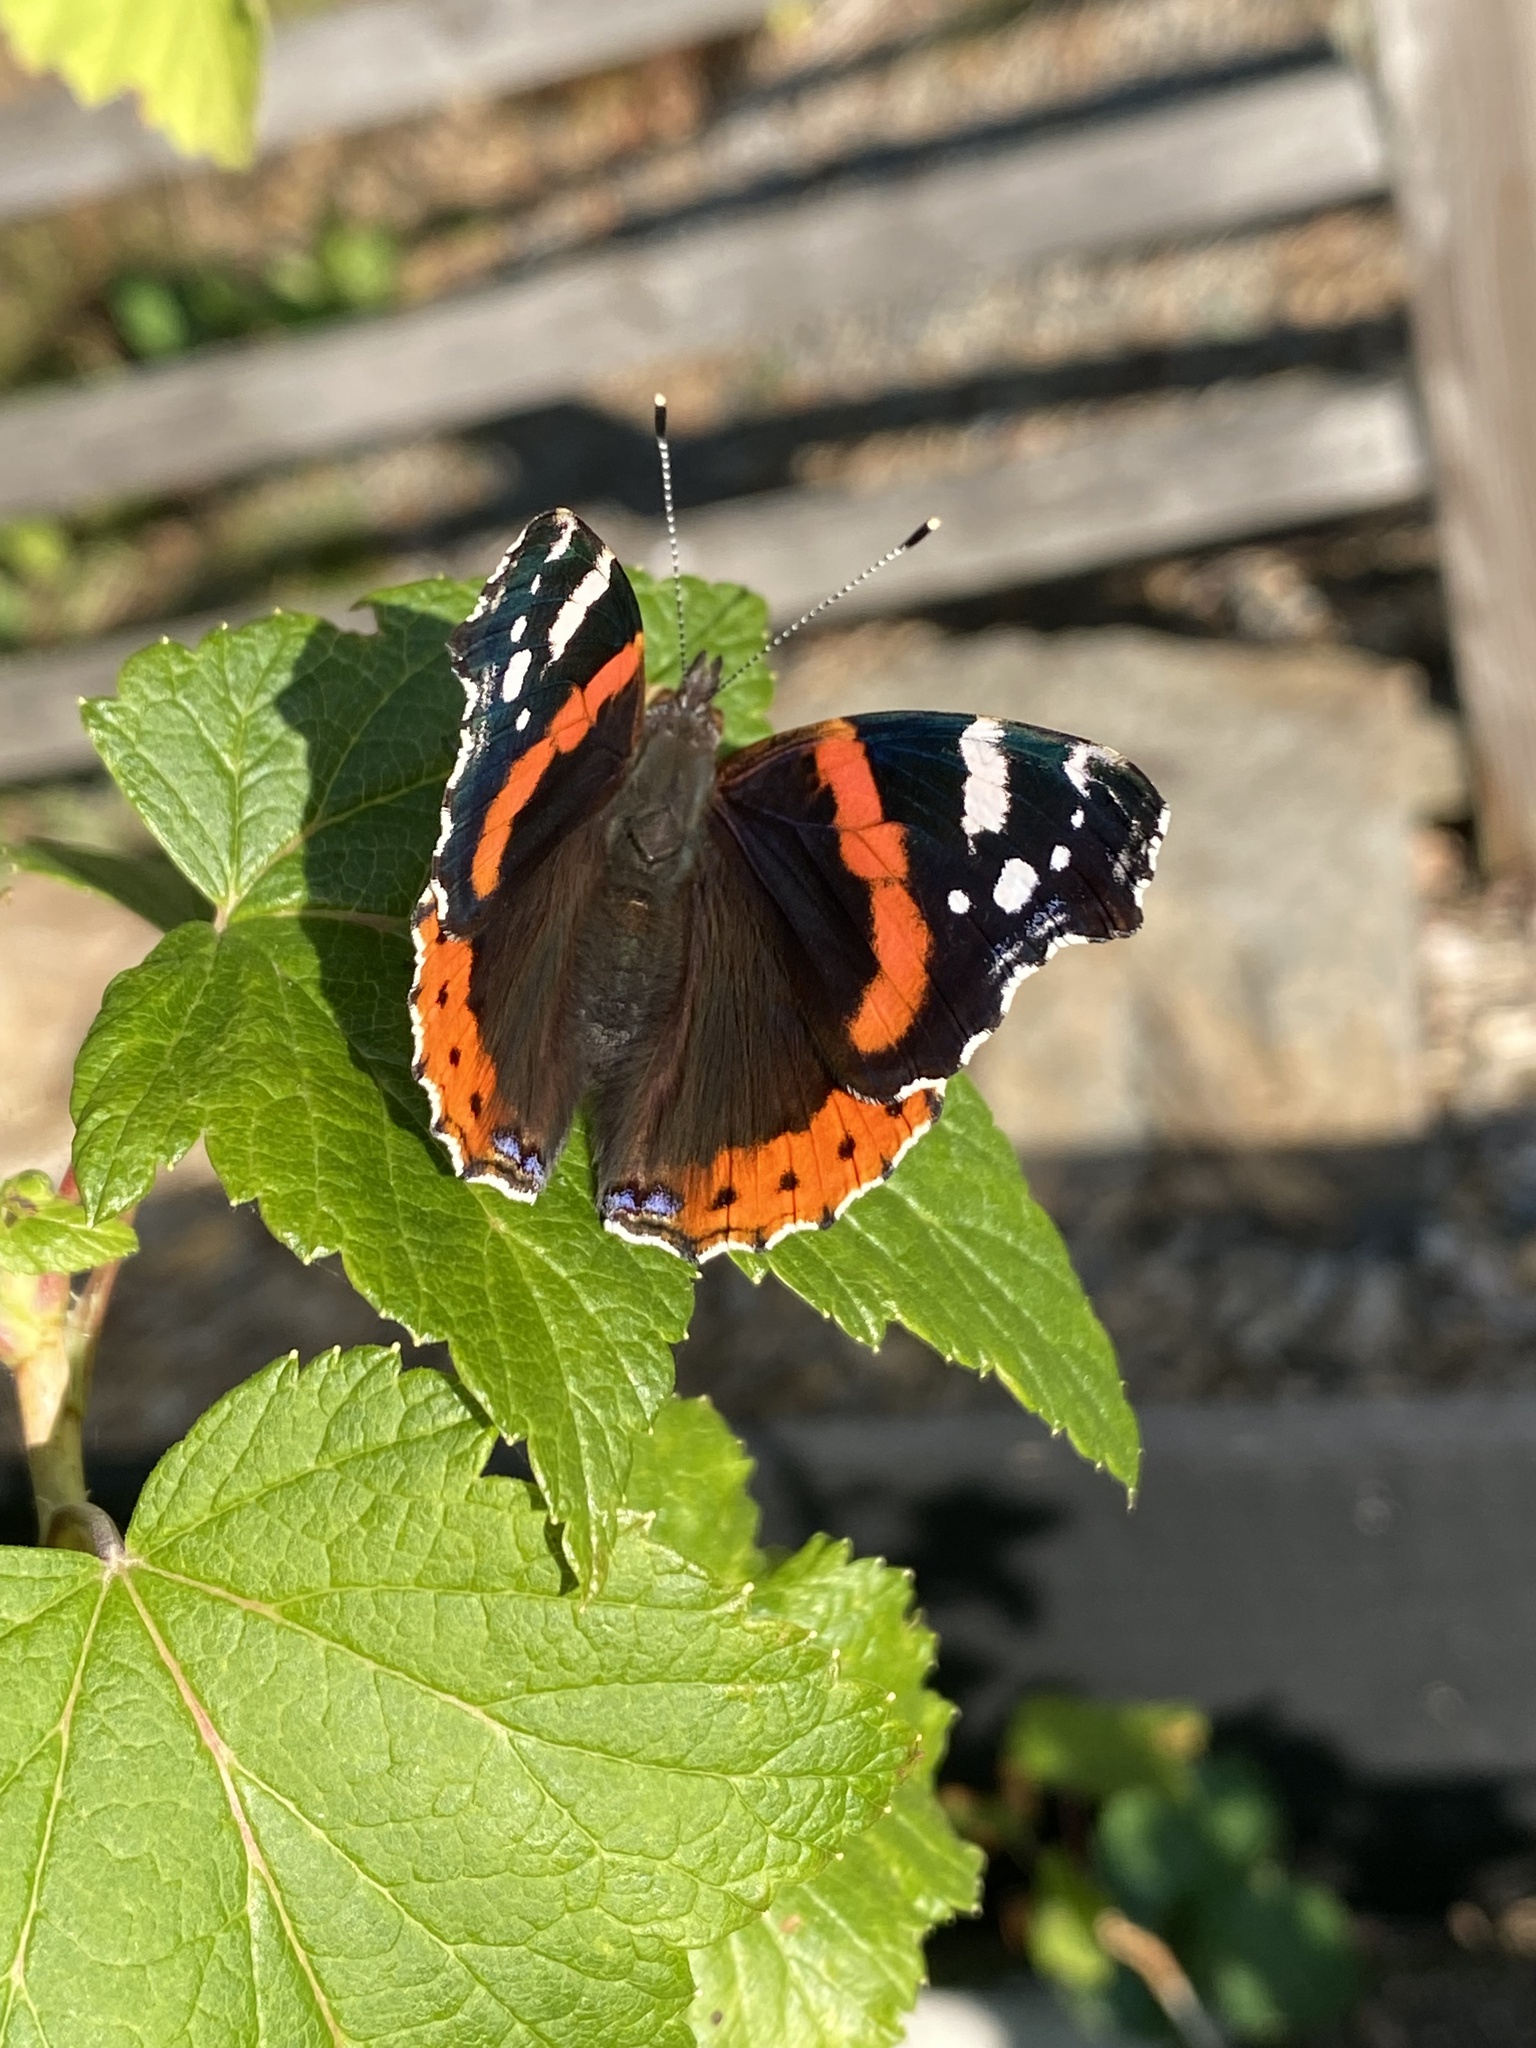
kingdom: Animalia
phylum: Arthropoda
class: Insecta
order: Lepidoptera
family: Nymphalidae
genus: Vanessa
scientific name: Vanessa atalanta
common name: Red admiral
